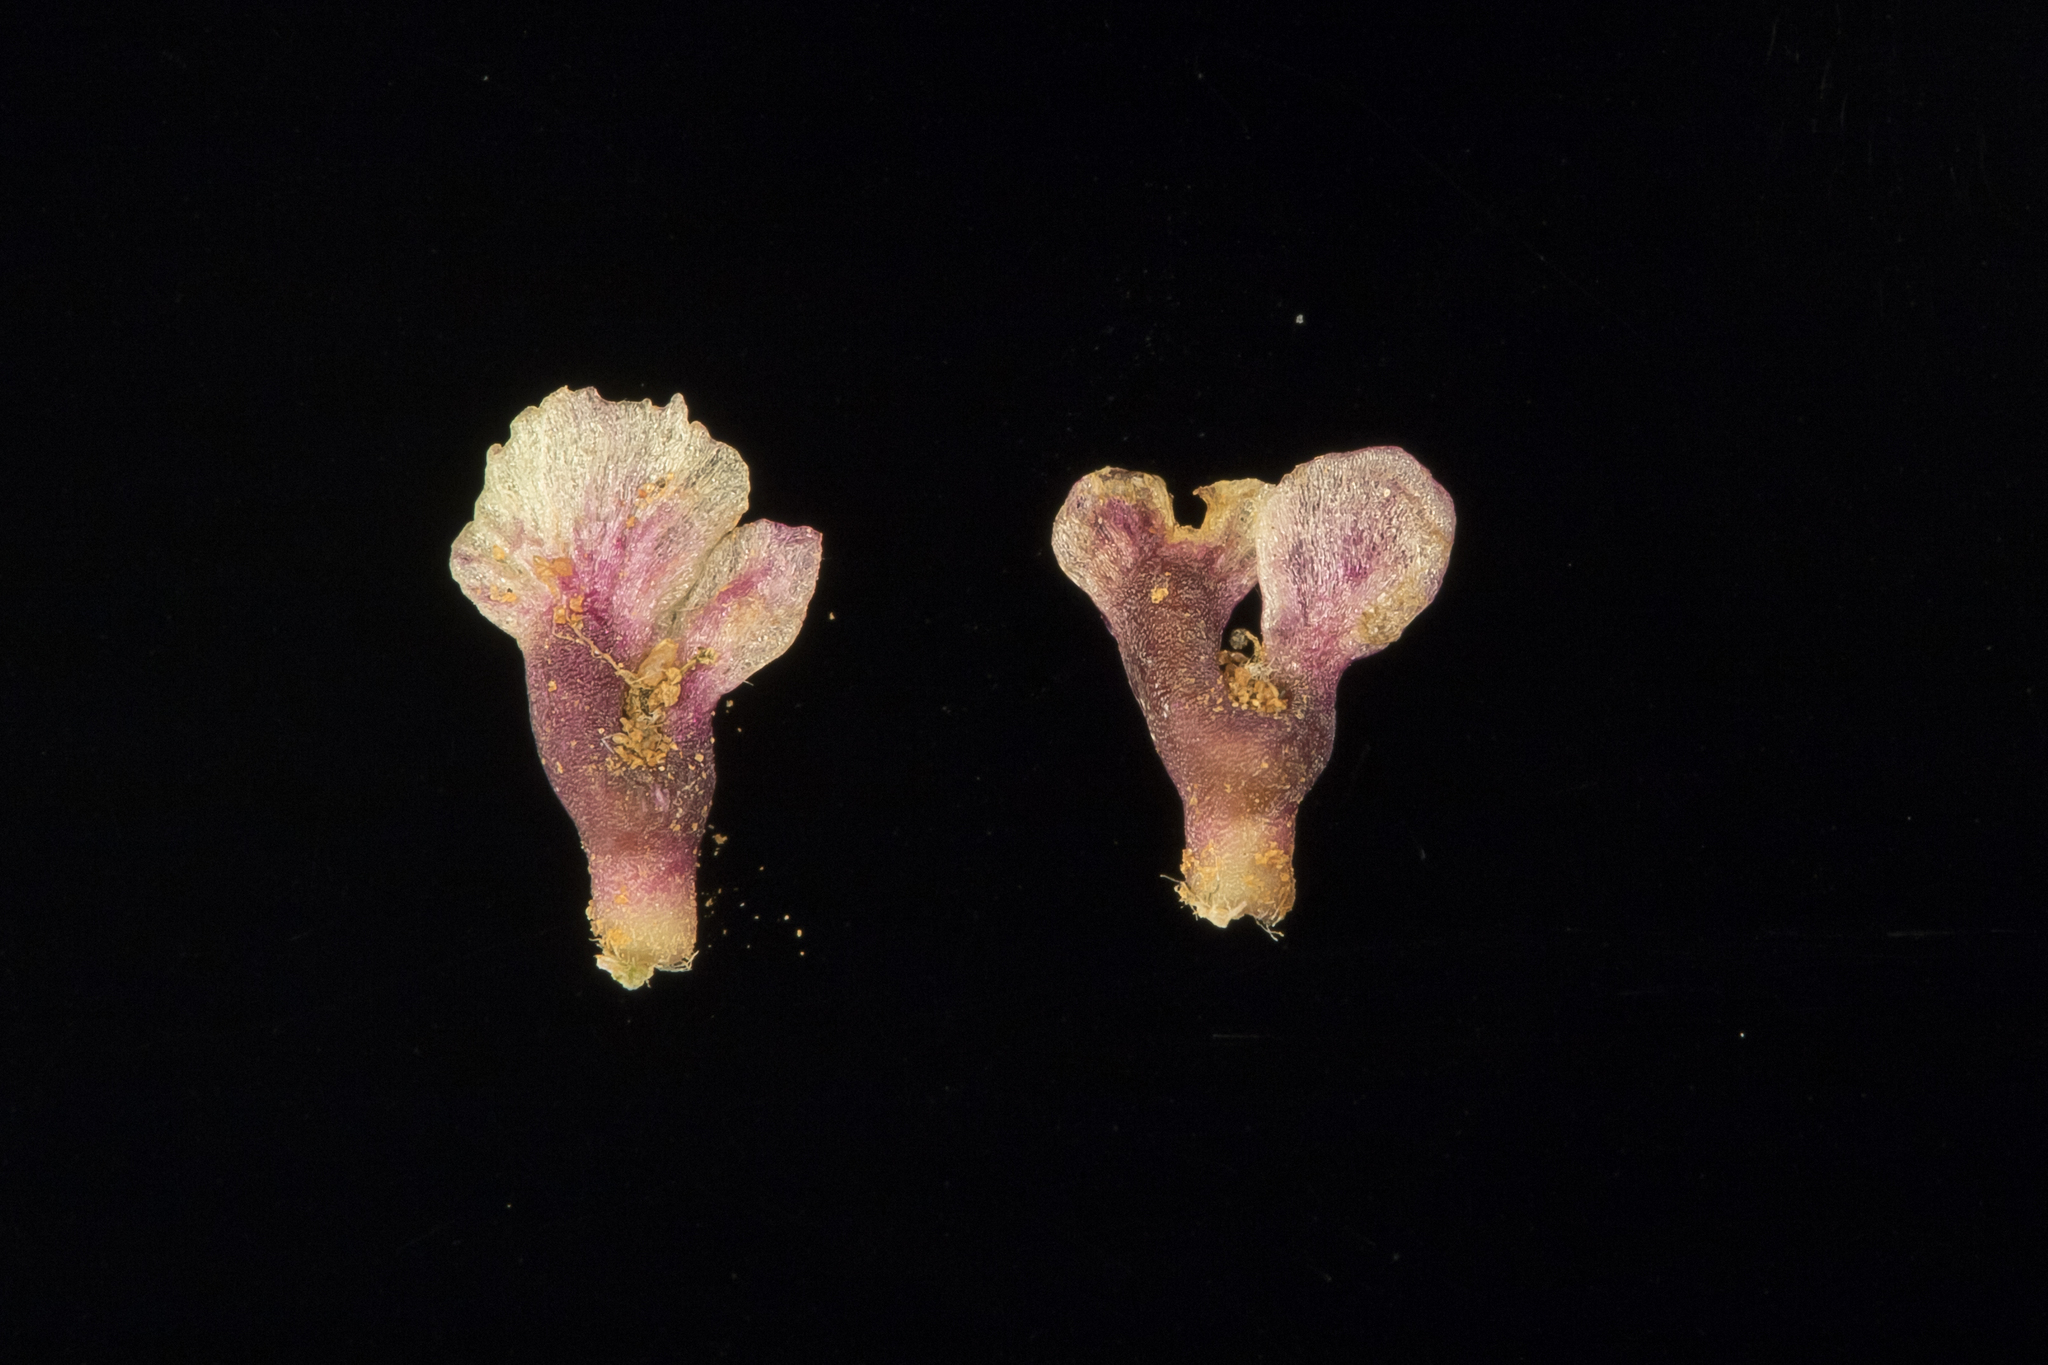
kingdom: Plantae
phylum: Tracheophyta
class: Magnoliopsida
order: Caryophyllales
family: Amaranthaceae
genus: Osteocarpum
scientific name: Osteocarpum acropterum
